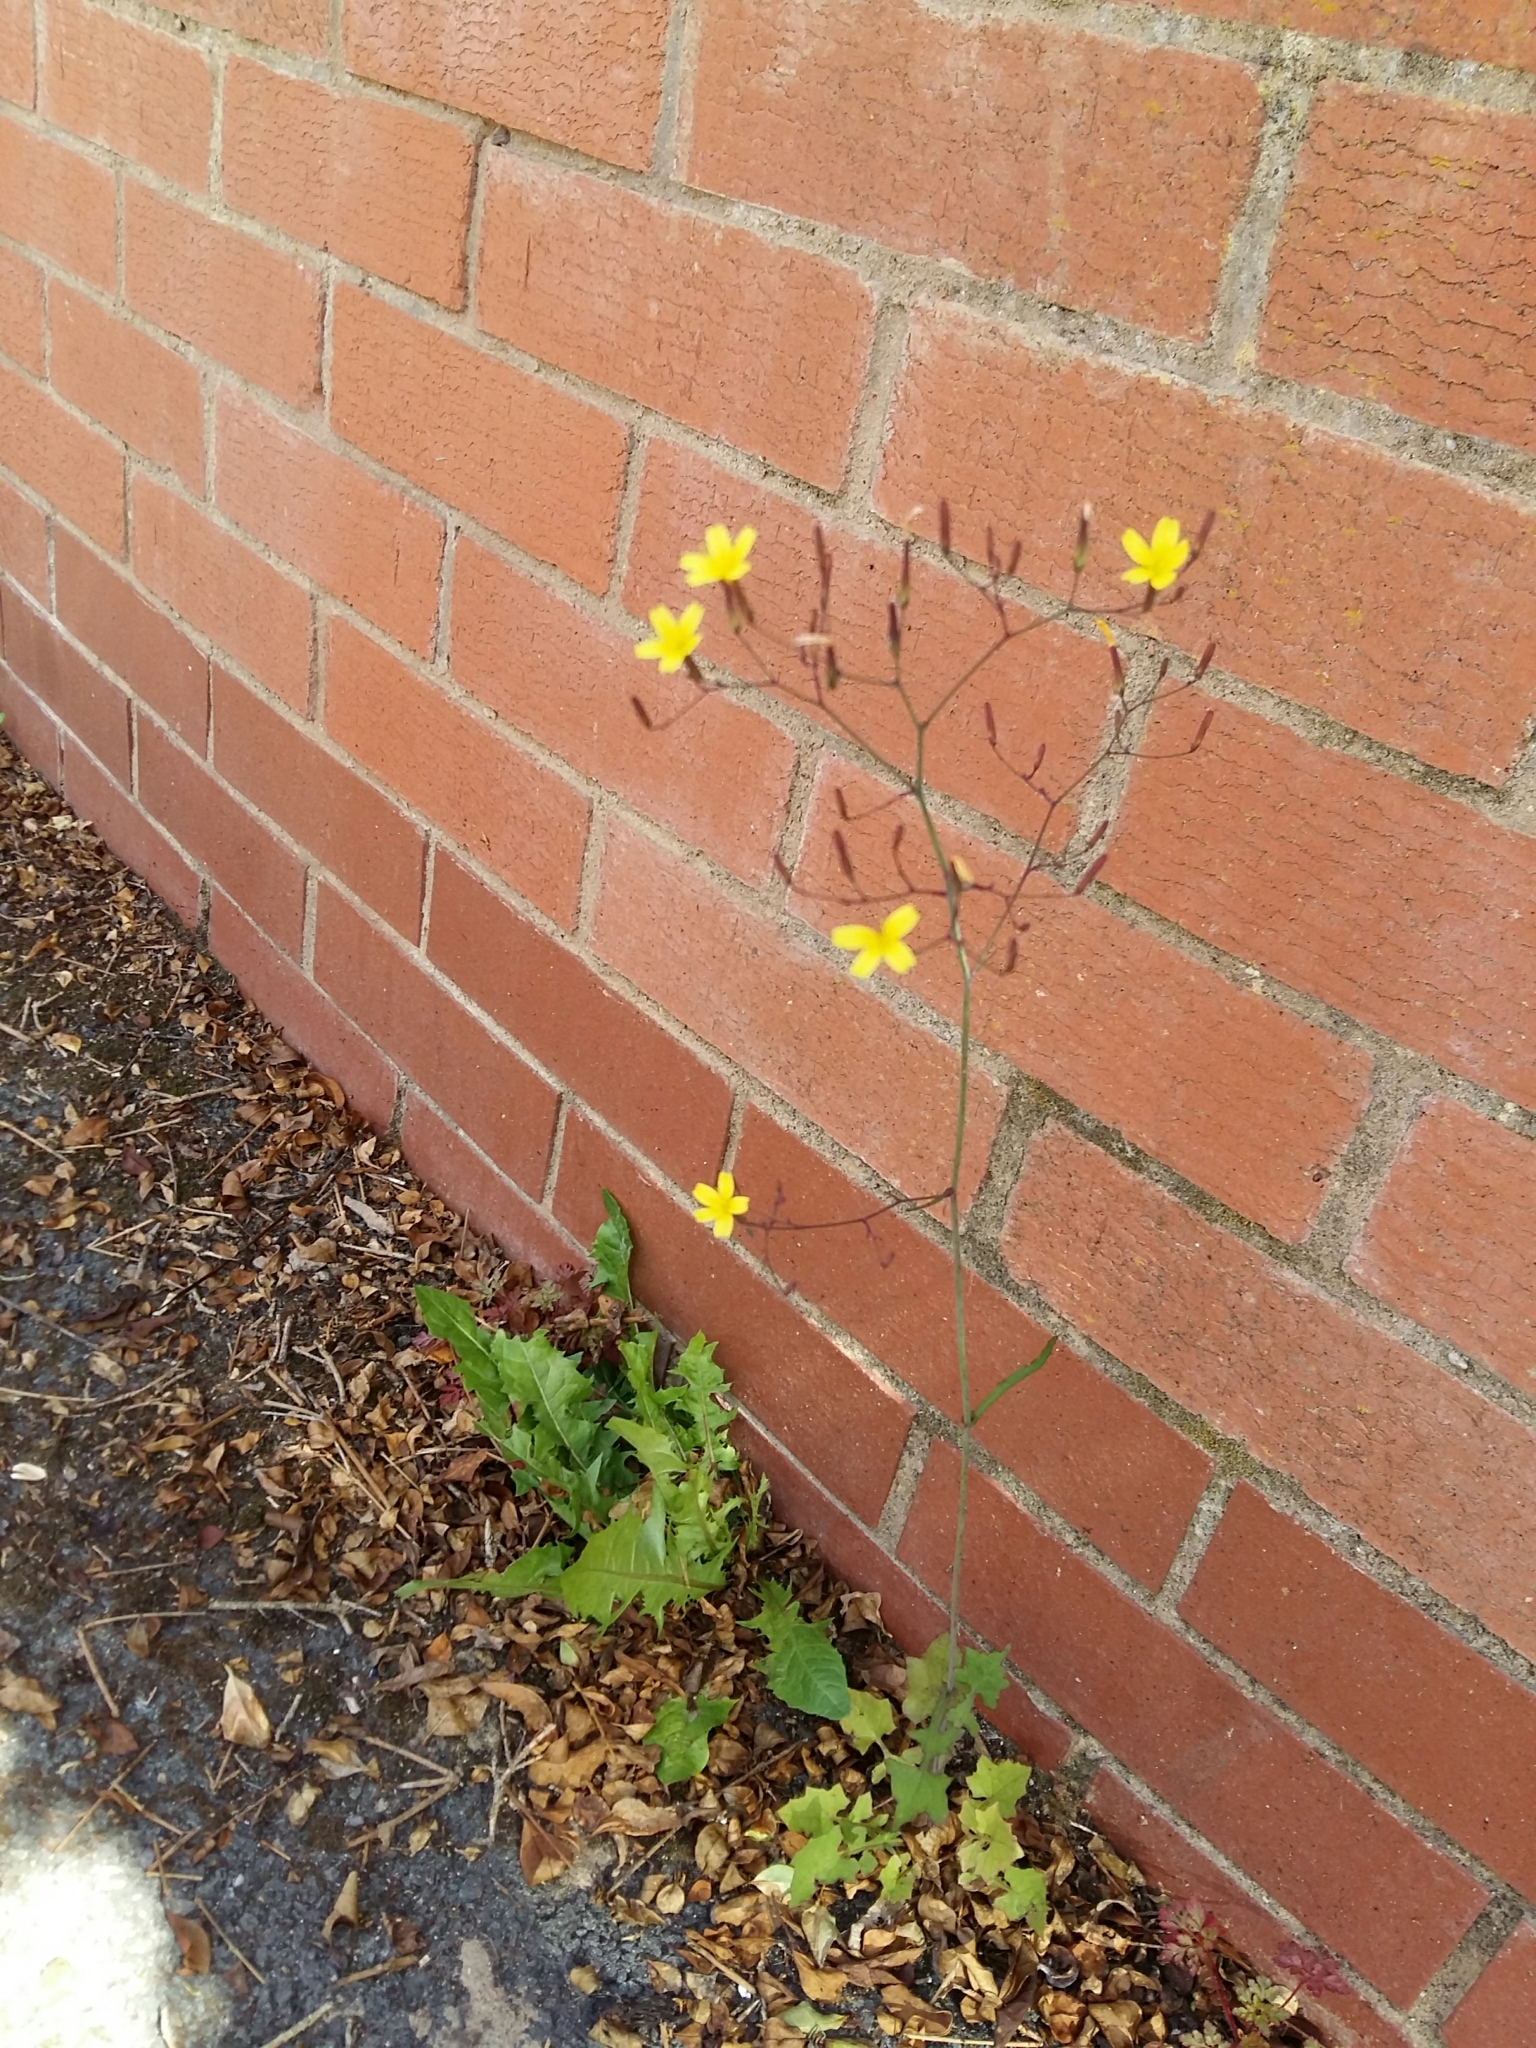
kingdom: Plantae
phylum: Tracheophyta
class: Magnoliopsida
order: Asterales
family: Asteraceae
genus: Mycelis
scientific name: Mycelis muralis
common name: Wall lettuce
